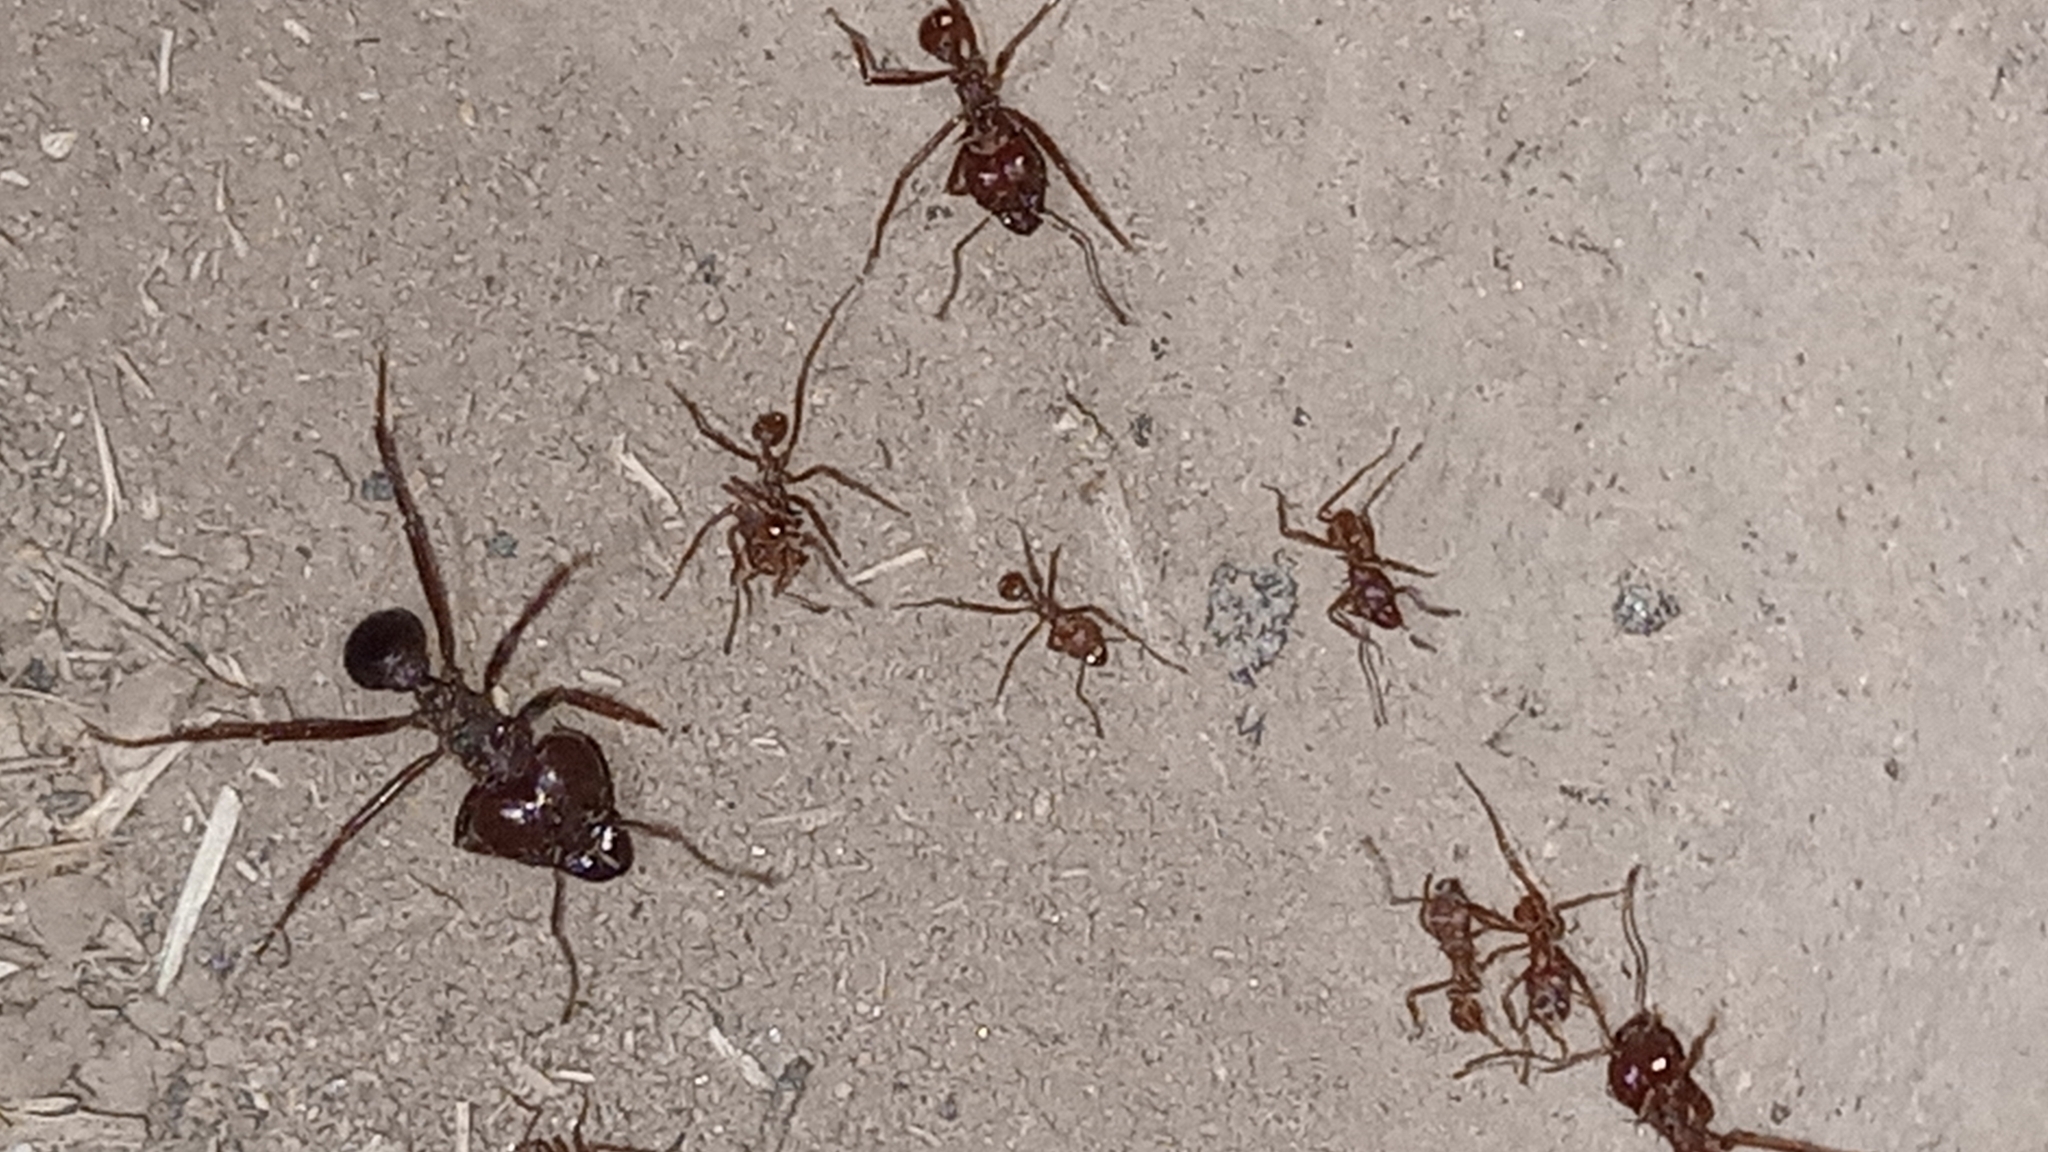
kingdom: Animalia
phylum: Arthropoda
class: Insecta
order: Hymenoptera
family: Formicidae
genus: Atta
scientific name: Atta mexicana
